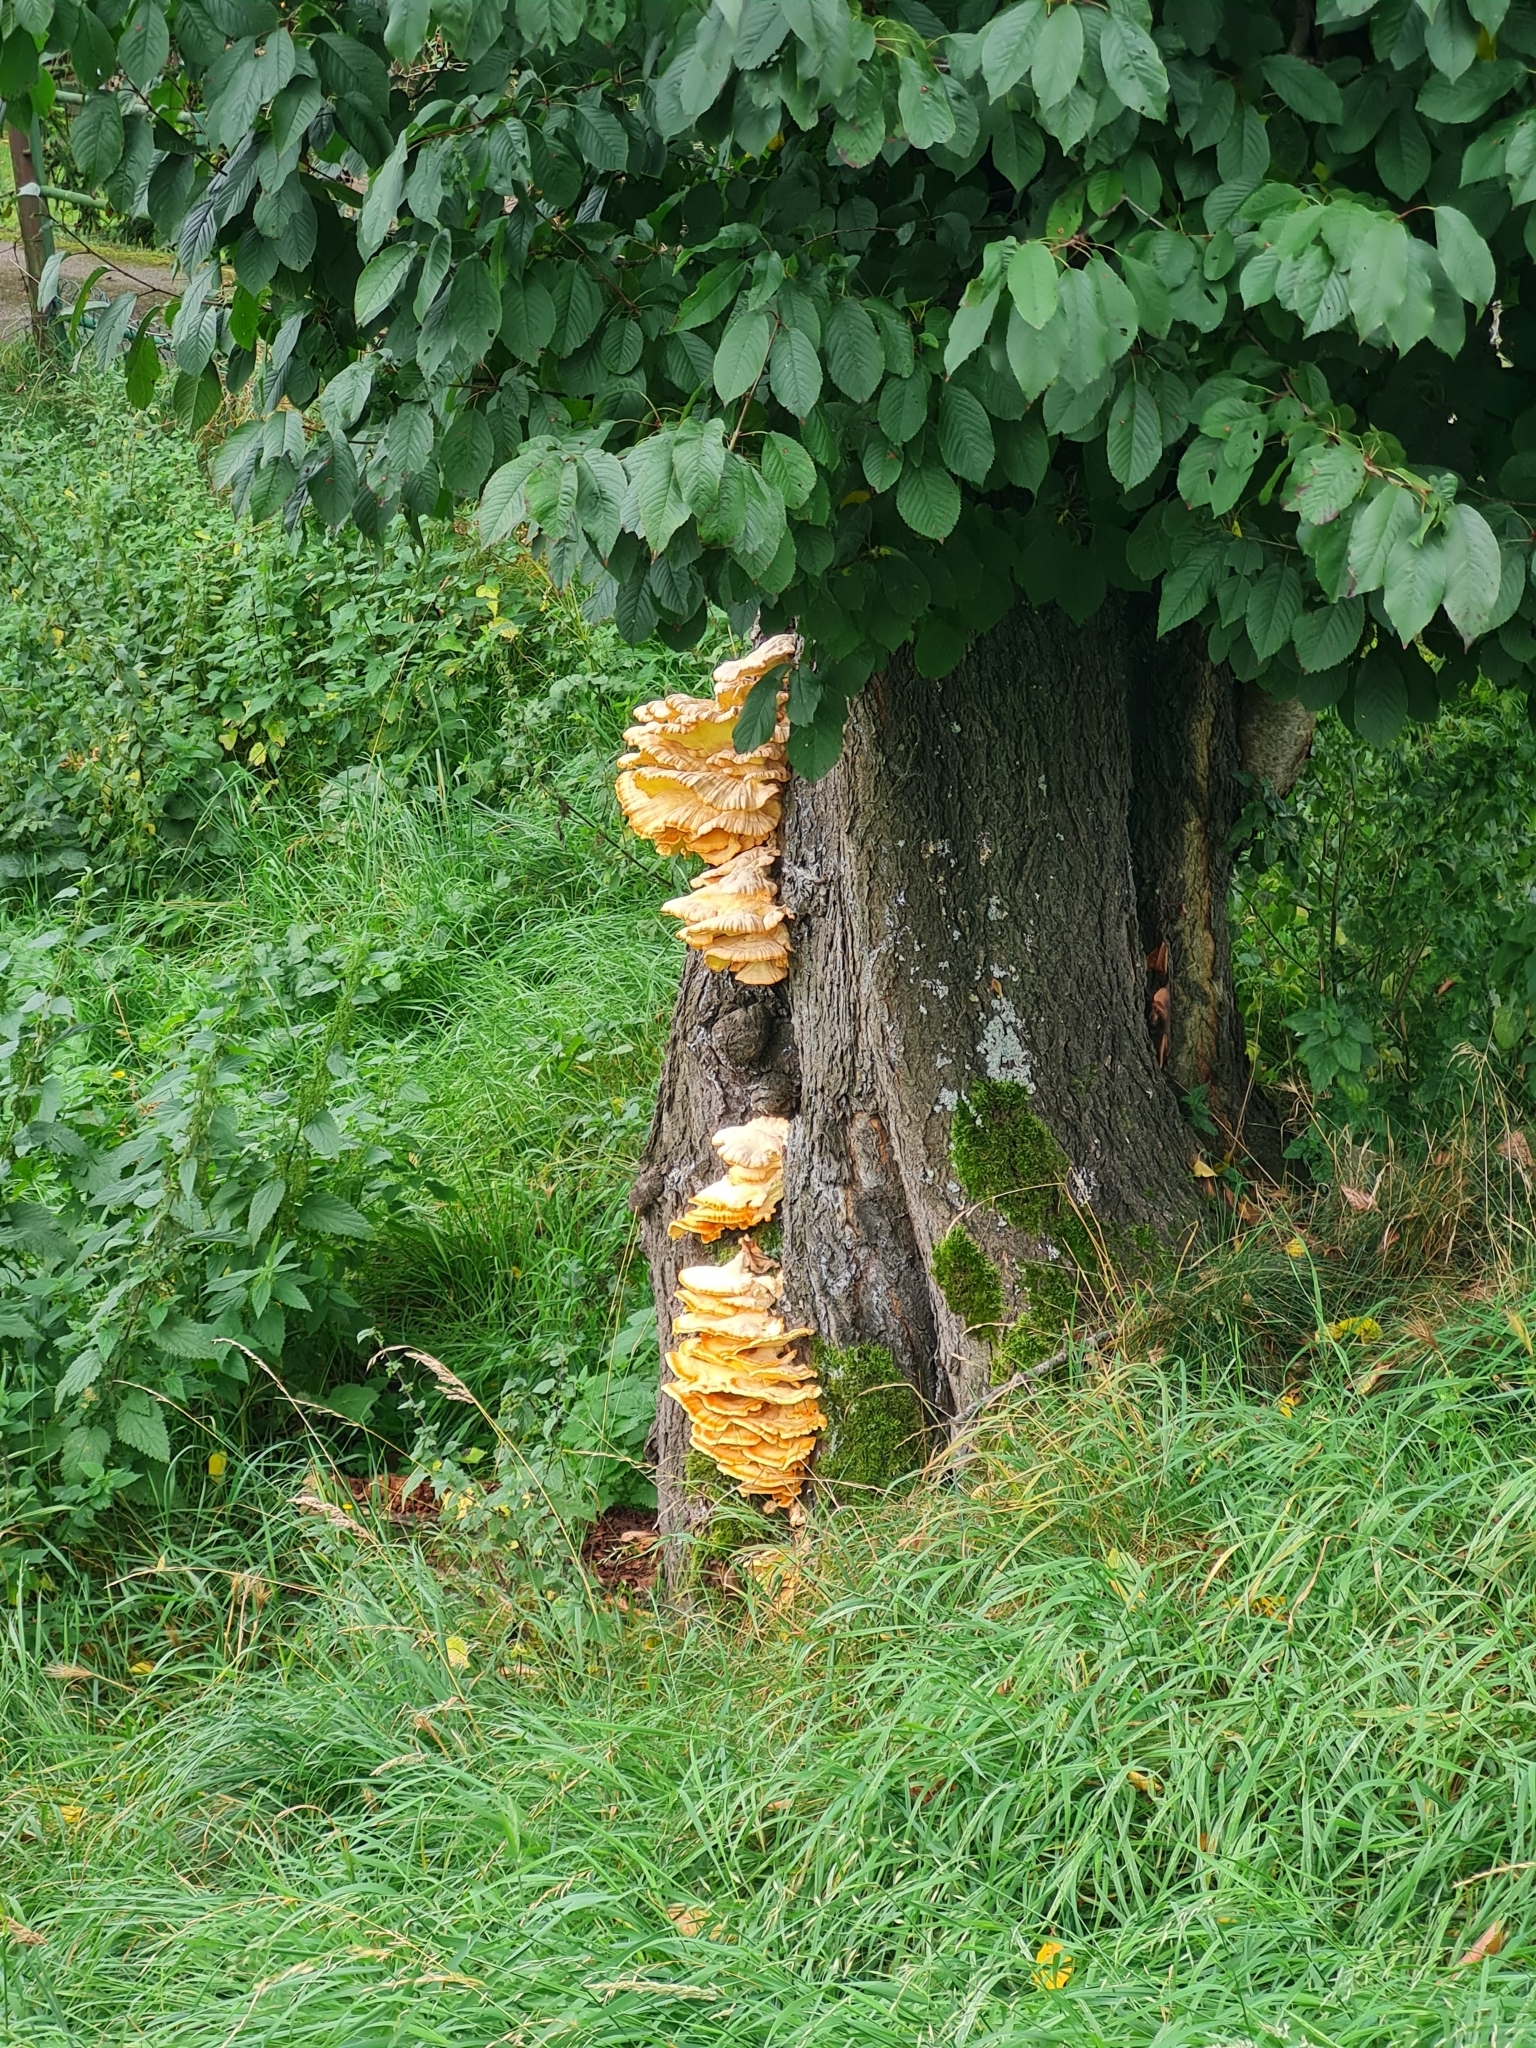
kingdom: Fungi
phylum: Basidiomycota
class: Agaricomycetes
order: Polyporales
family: Laetiporaceae
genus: Laetiporus
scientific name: Laetiporus sulphureus
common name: Chicken of the woods
